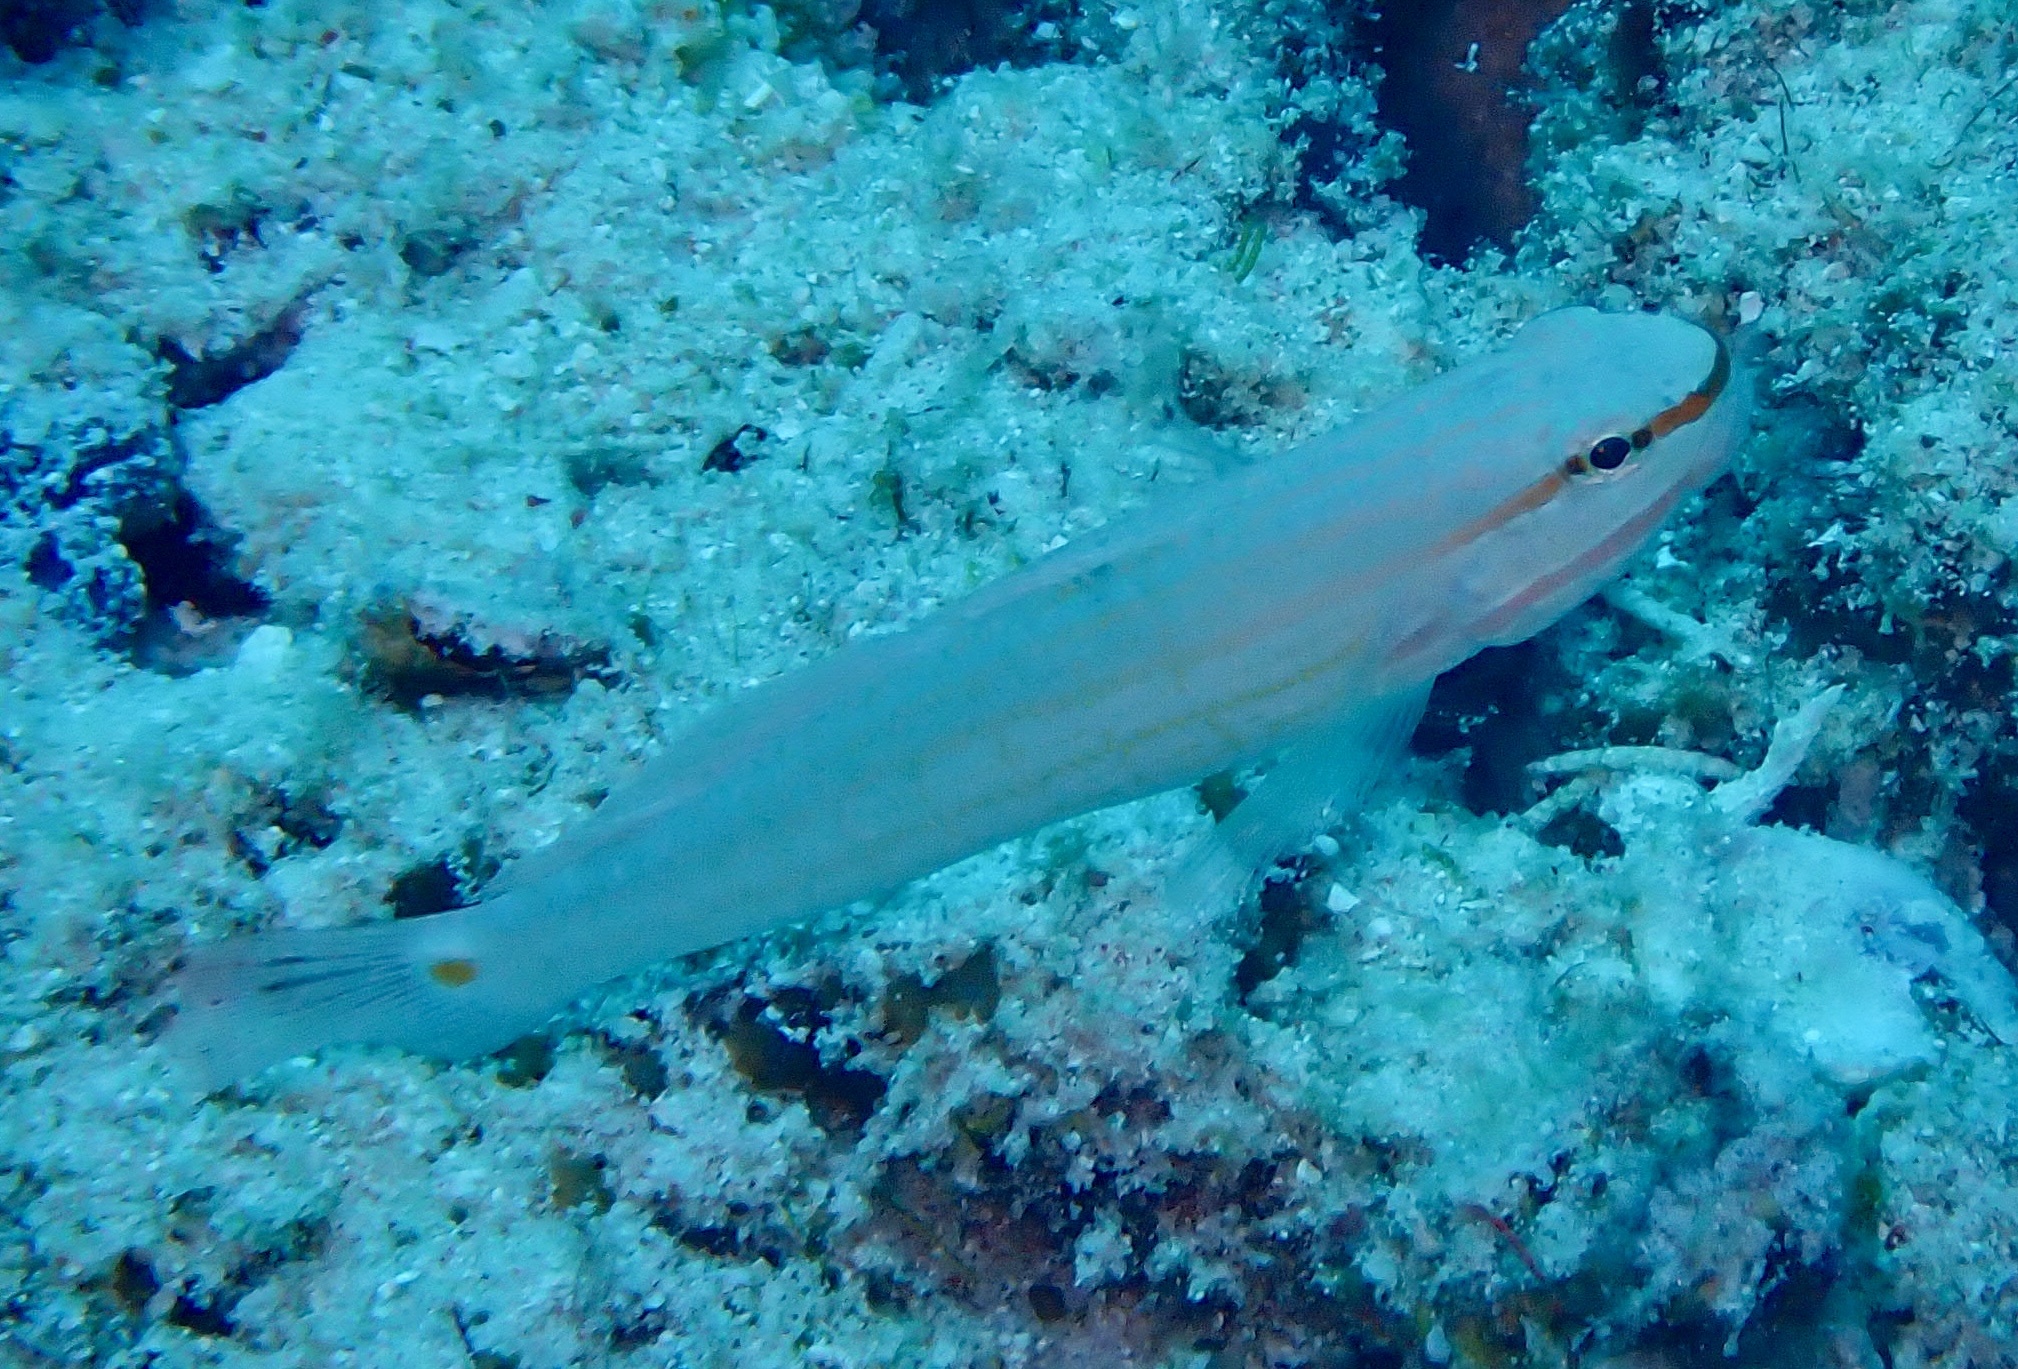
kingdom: Animalia
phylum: Chordata
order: Perciformes
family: Gobiidae
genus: Amblygobius
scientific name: Amblygobius decussatus
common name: Crosshatch goby
